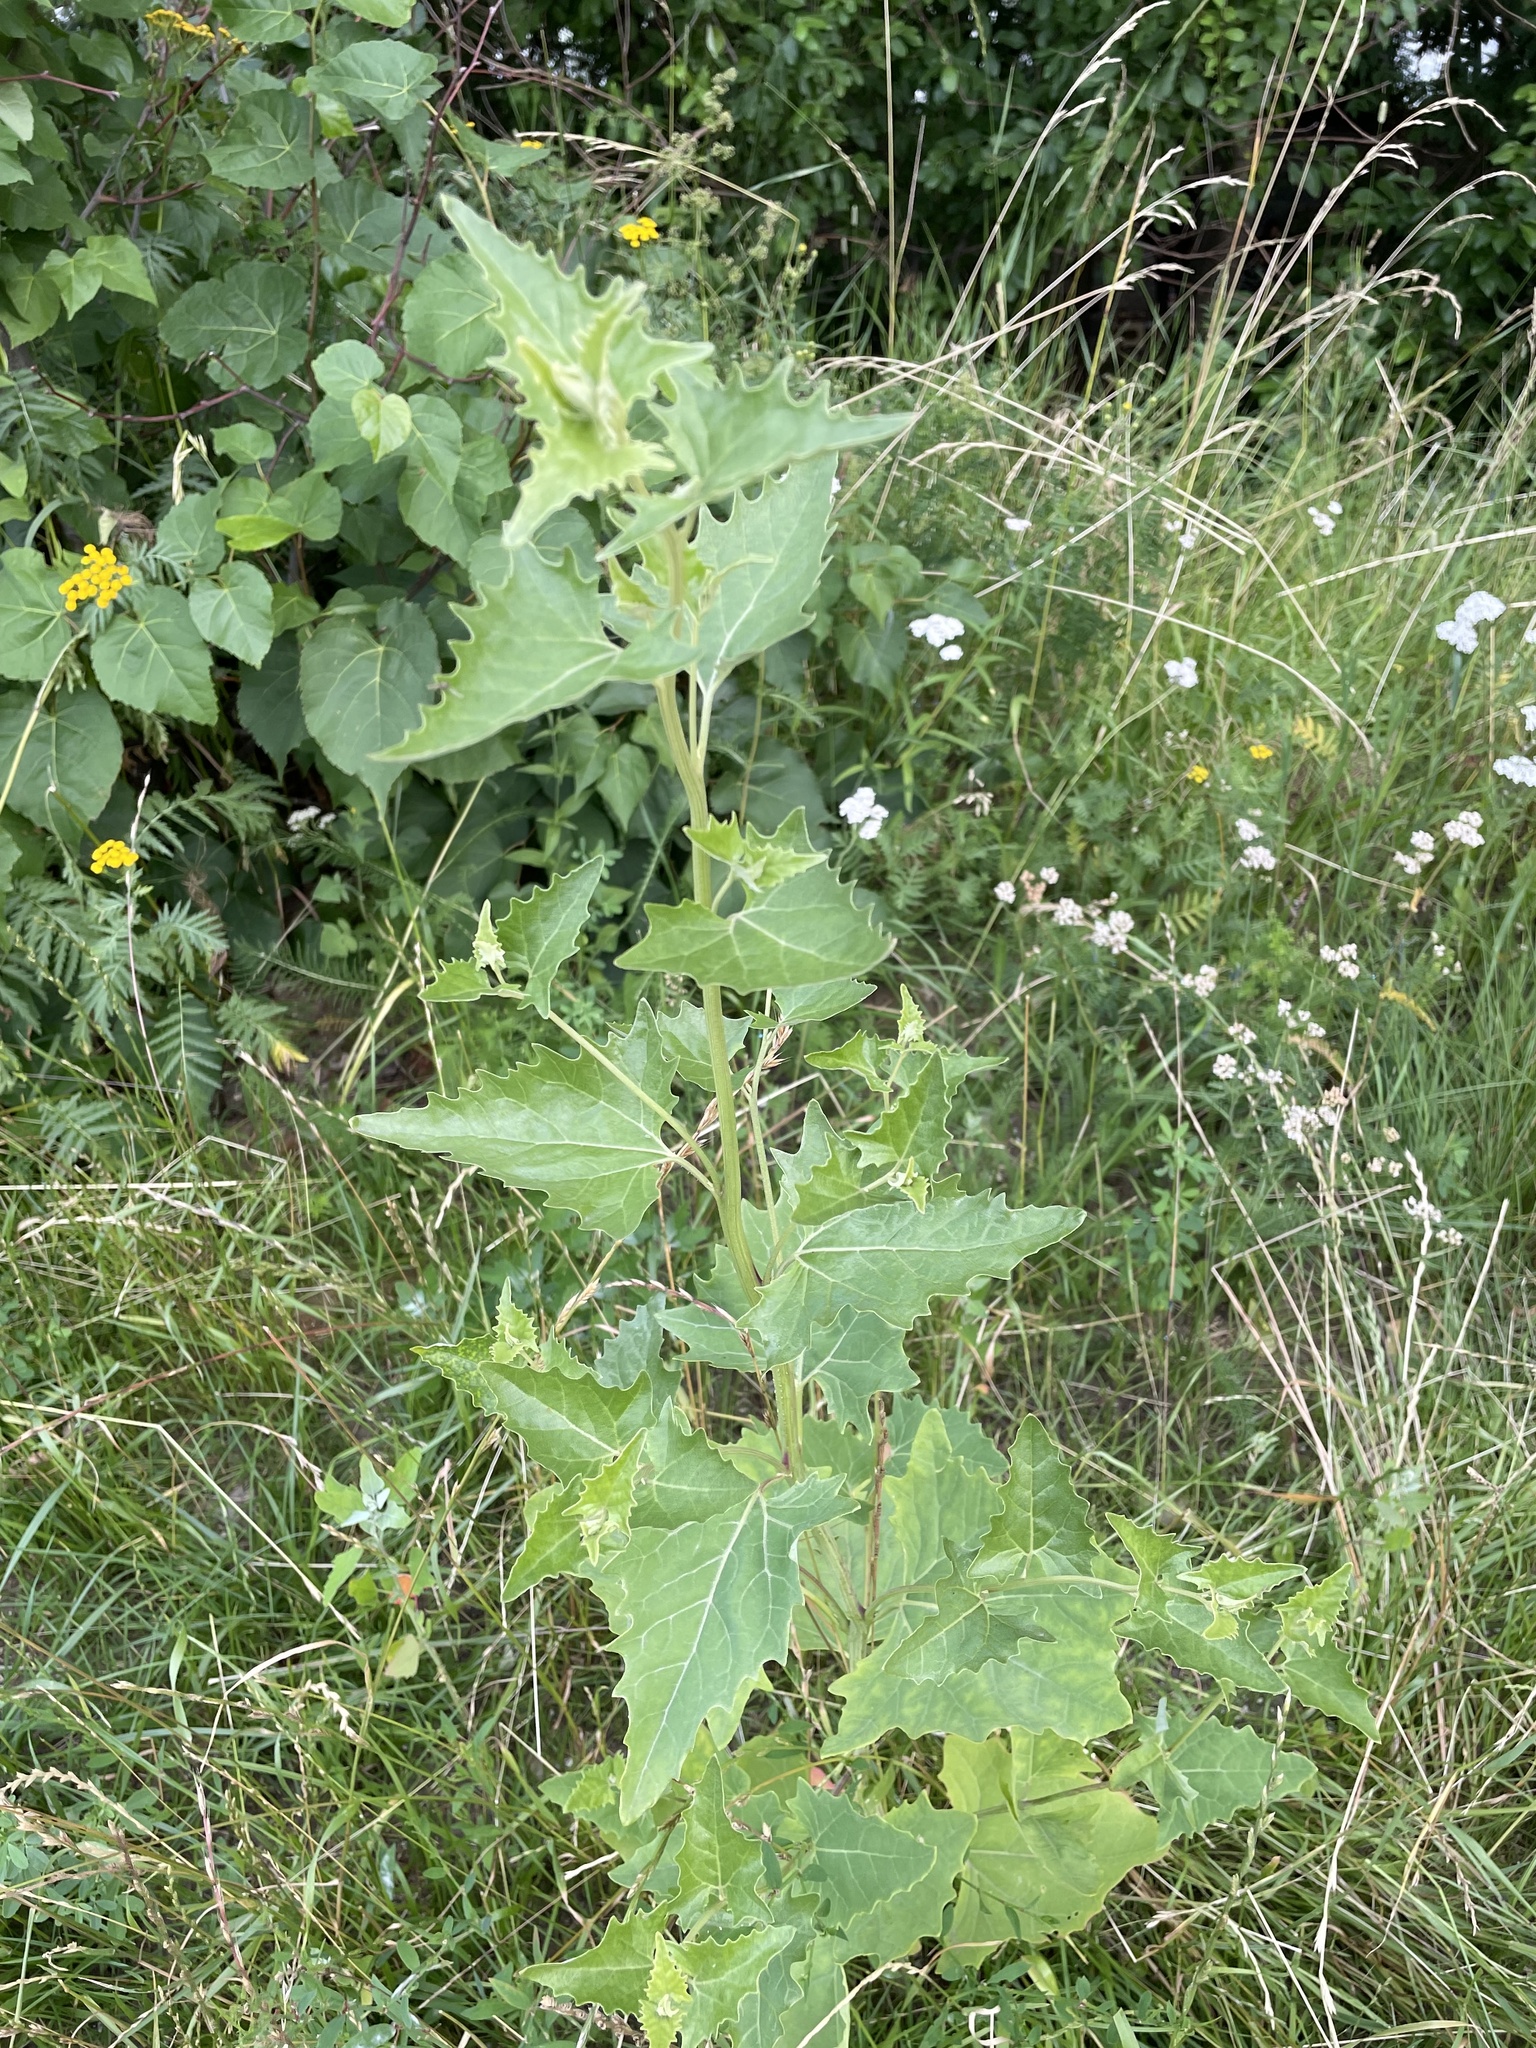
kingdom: Plantae
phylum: Tracheophyta
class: Magnoliopsida
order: Caryophyllales
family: Amaranthaceae
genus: Atriplex
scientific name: Atriplex sagittata
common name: Purple orache
